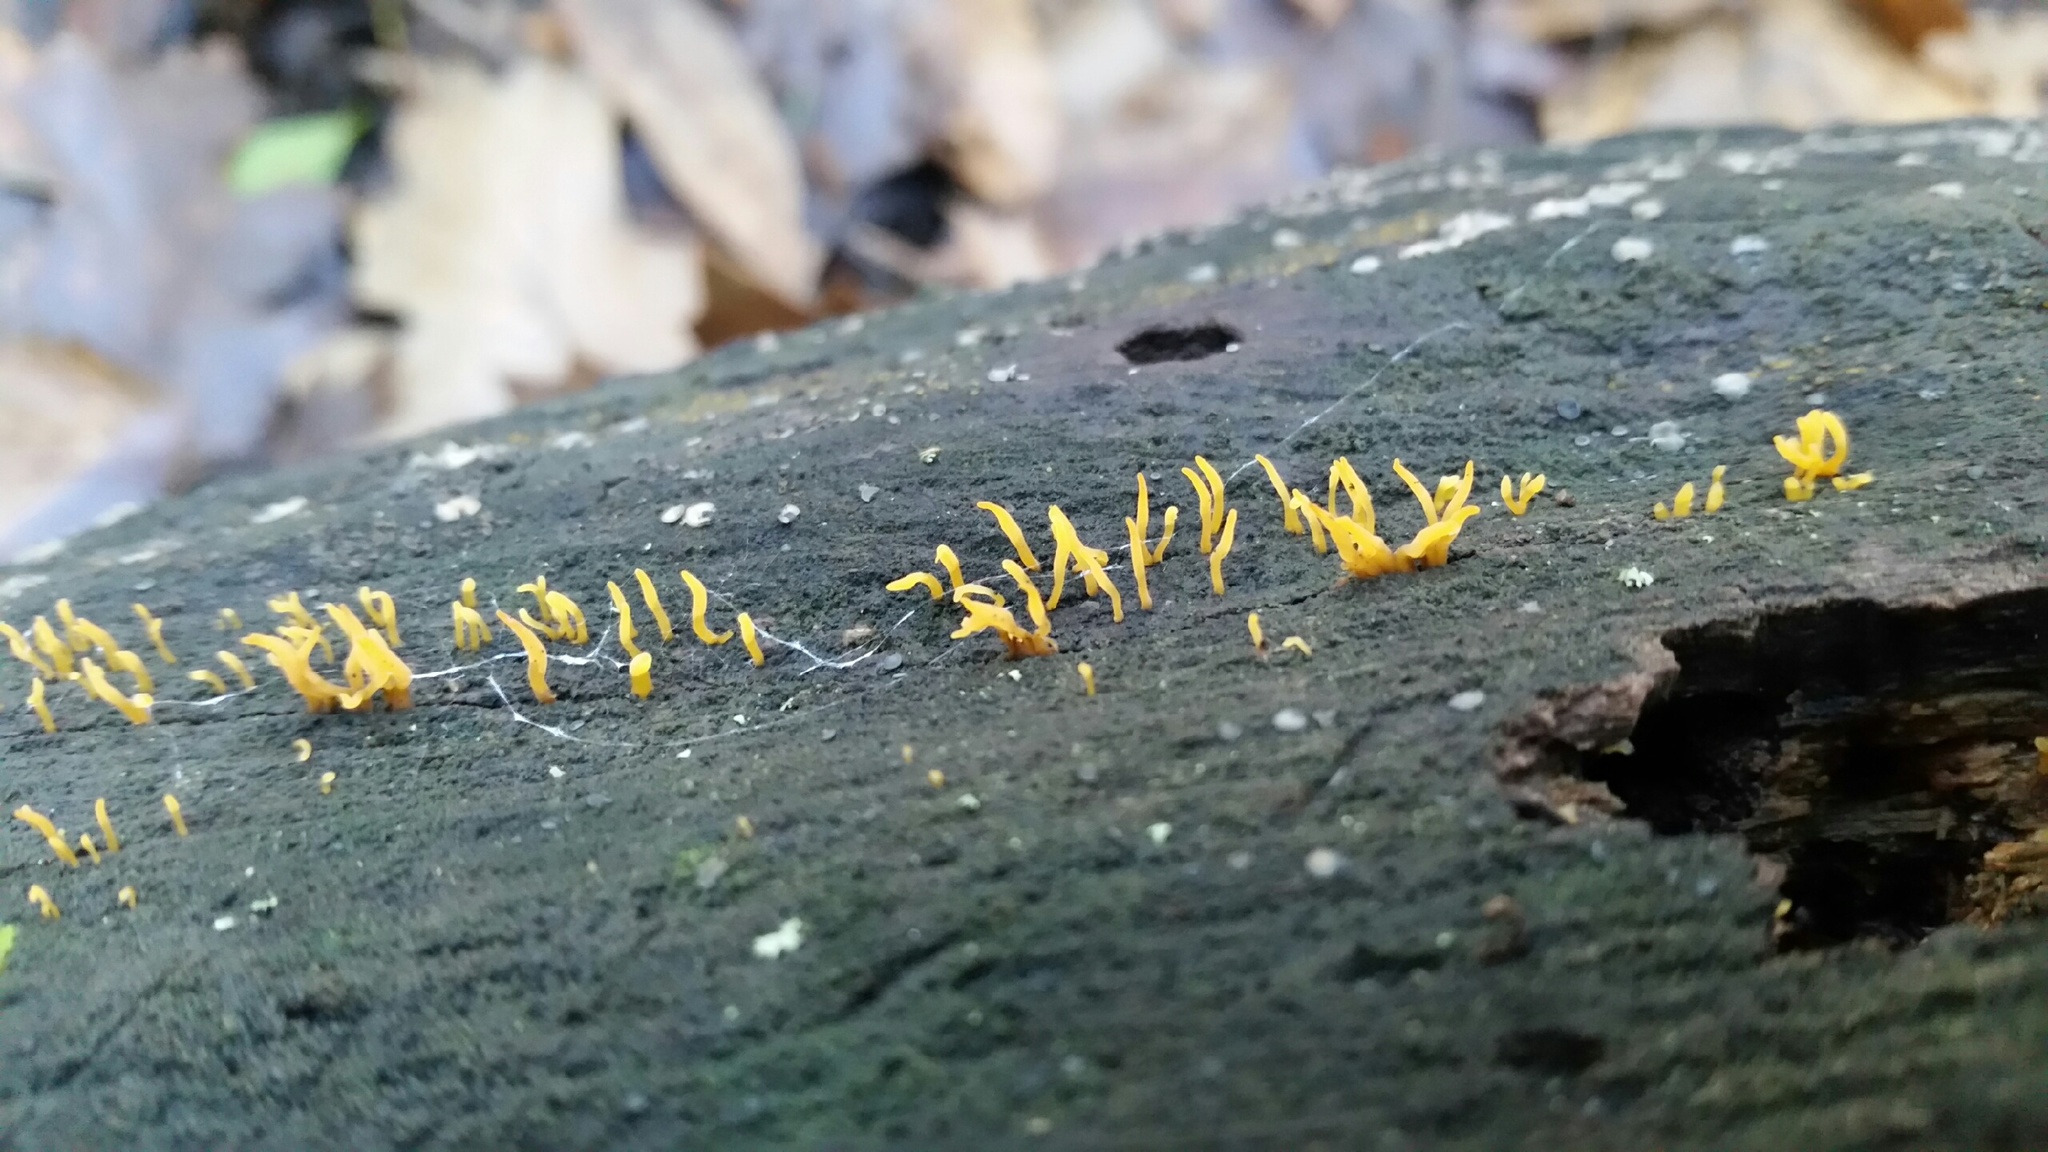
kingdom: Fungi
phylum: Basidiomycota
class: Dacrymycetes
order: Dacrymycetales
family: Dacrymycetaceae
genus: Calocera
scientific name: Calocera cornea
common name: Small stagshorn
